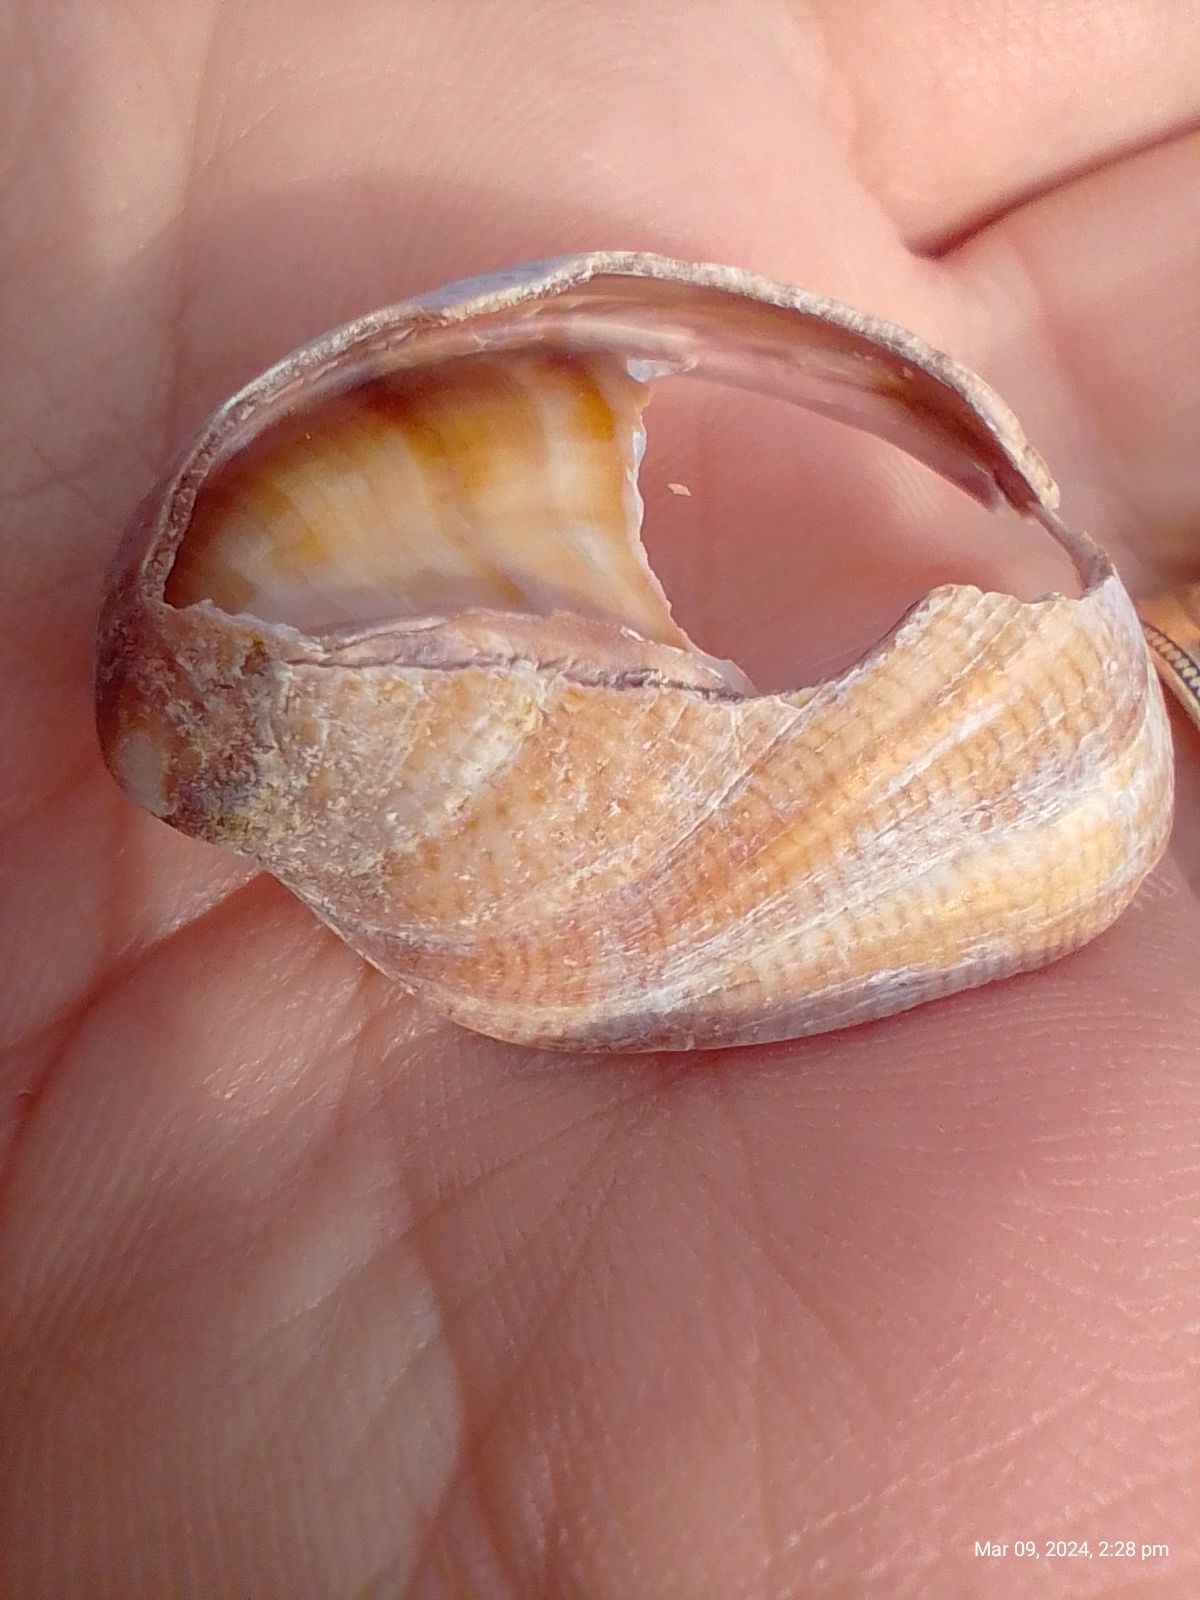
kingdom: Animalia
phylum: Mollusca
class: Gastropoda
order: Littorinimorpha
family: Calyptraeidae
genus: Crepidula
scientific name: Crepidula fornicata
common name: Slipper limpet
